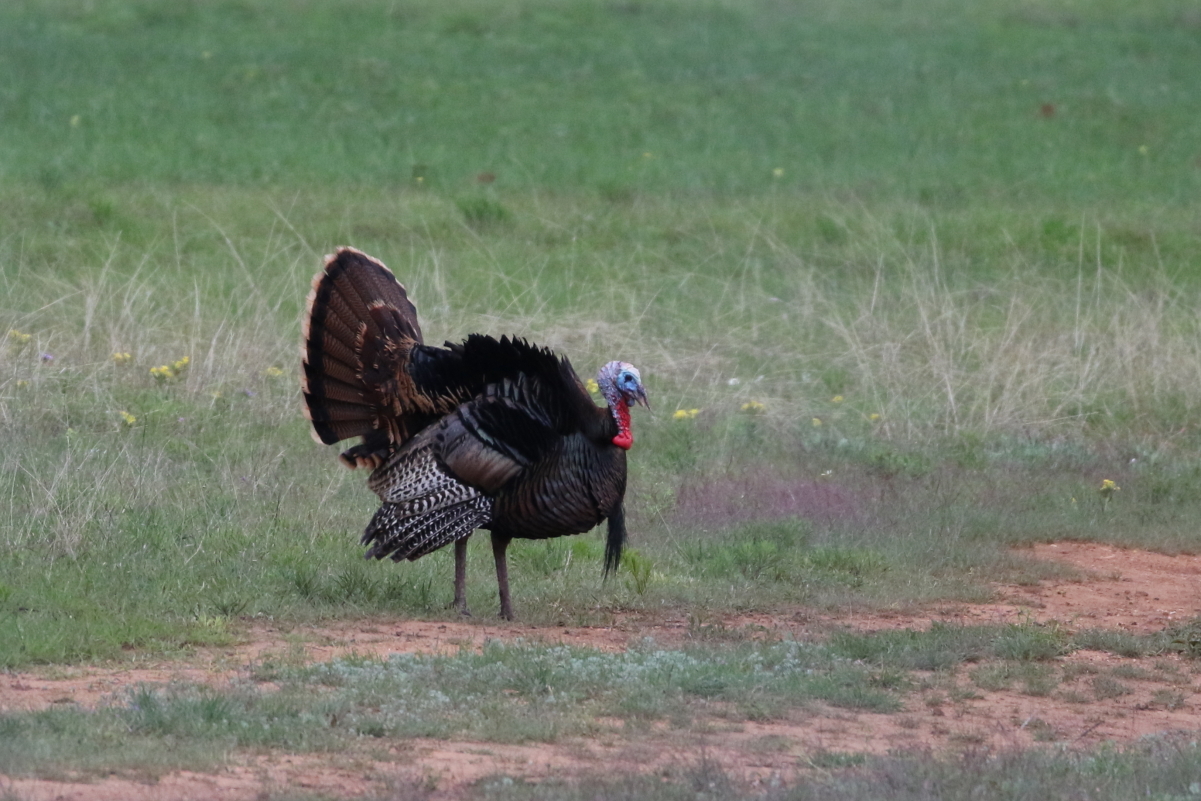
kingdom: Animalia
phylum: Chordata
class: Aves
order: Galliformes
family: Phasianidae
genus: Meleagris
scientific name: Meleagris gallopavo
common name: Wild turkey
